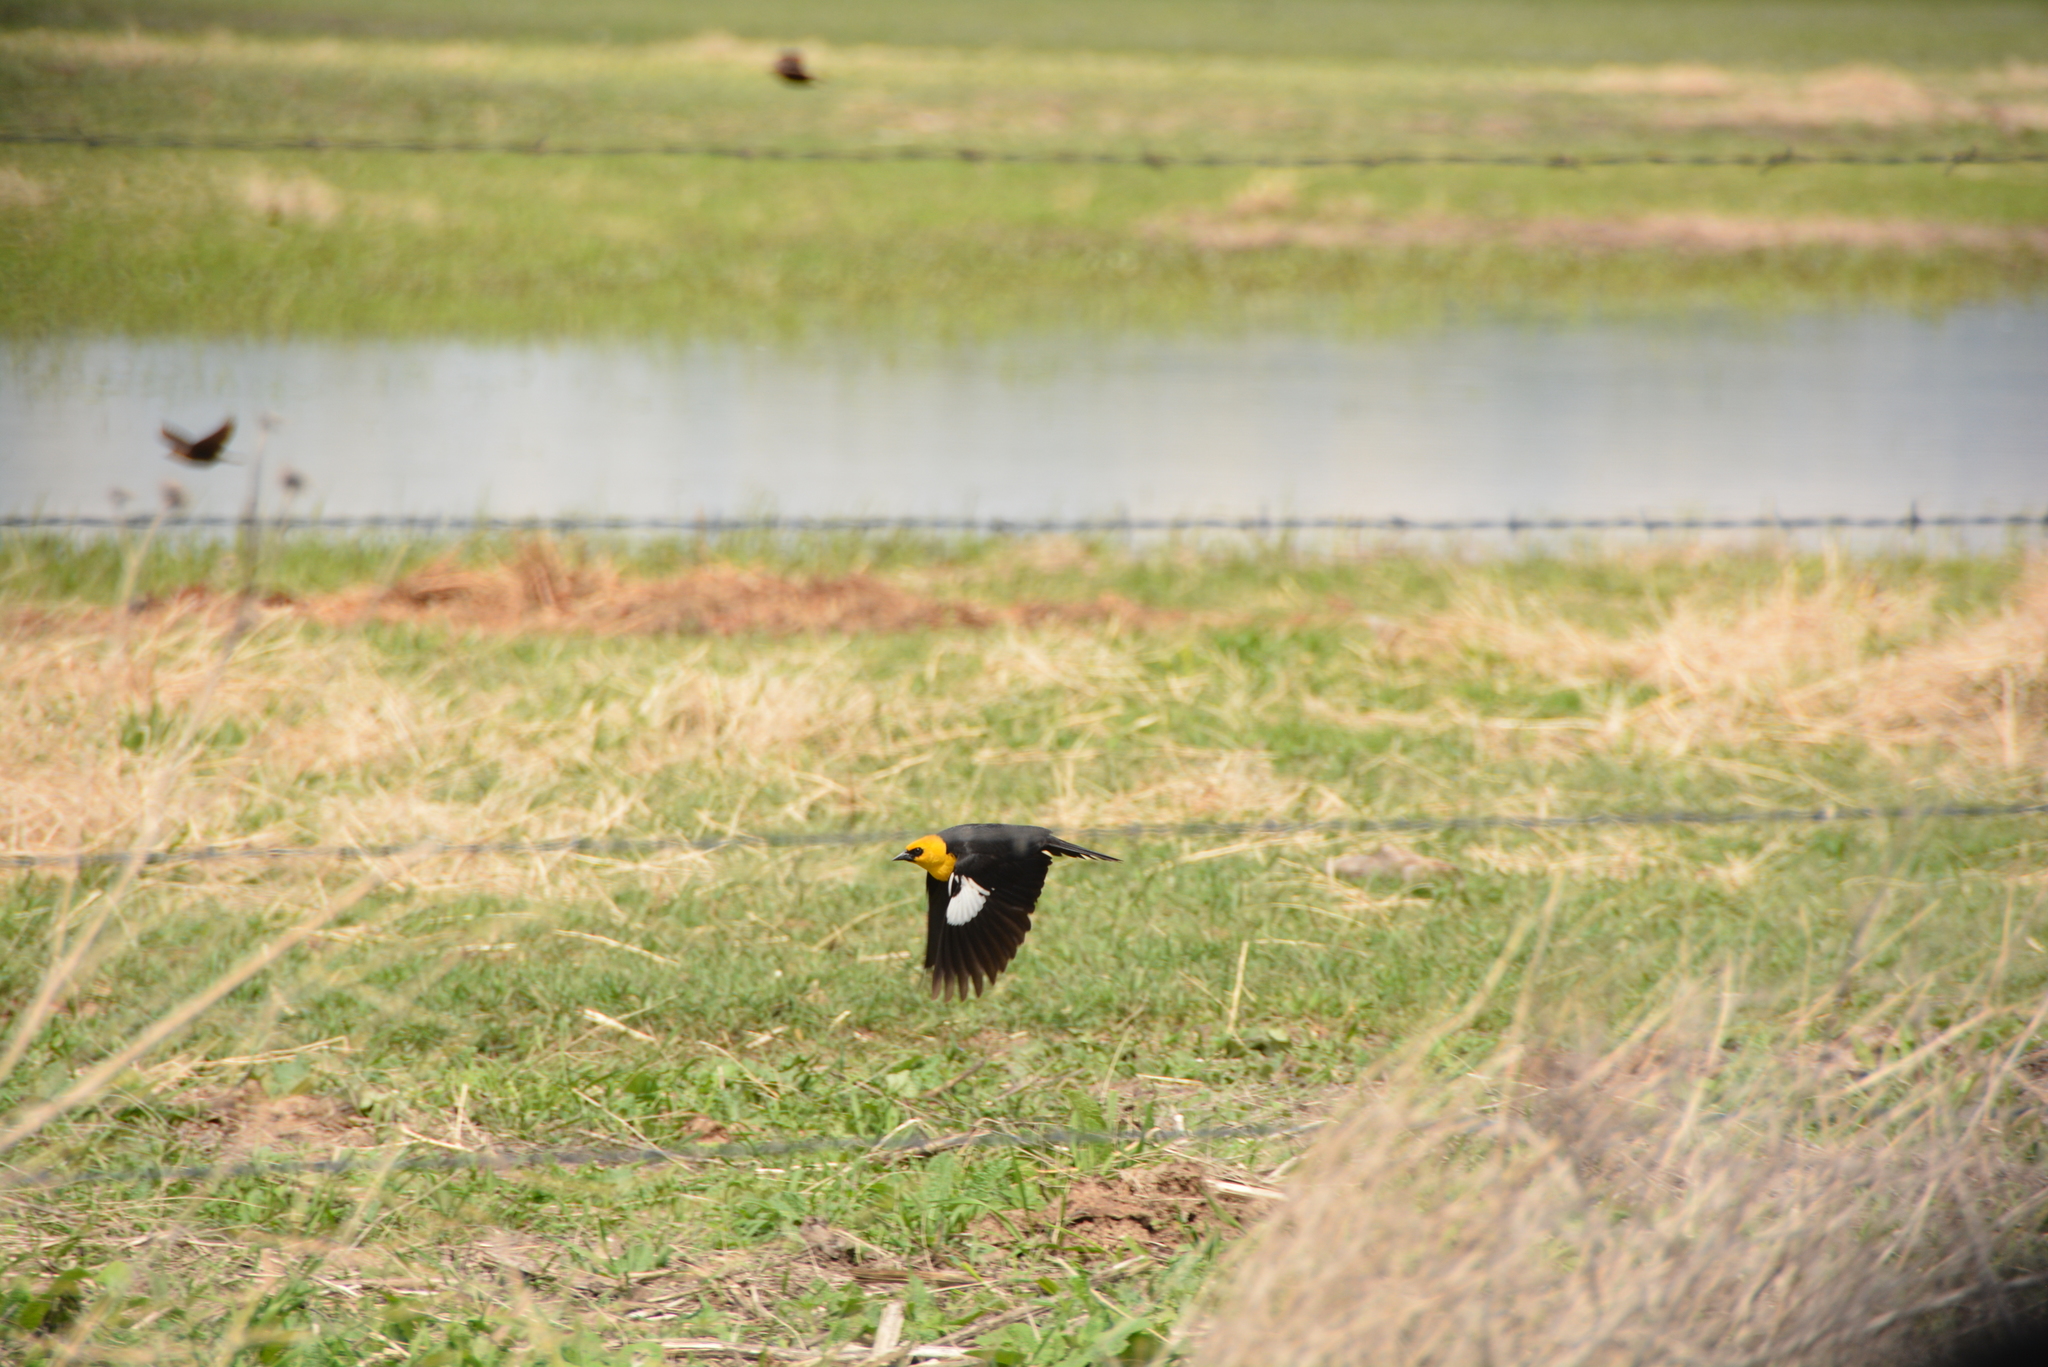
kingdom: Animalia
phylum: Chordata
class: Aves
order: Passeriformes
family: Icteridae
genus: Xanthocephalus
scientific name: Xanthocephalus xanthocephalus
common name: Yellow-headed blackbird
